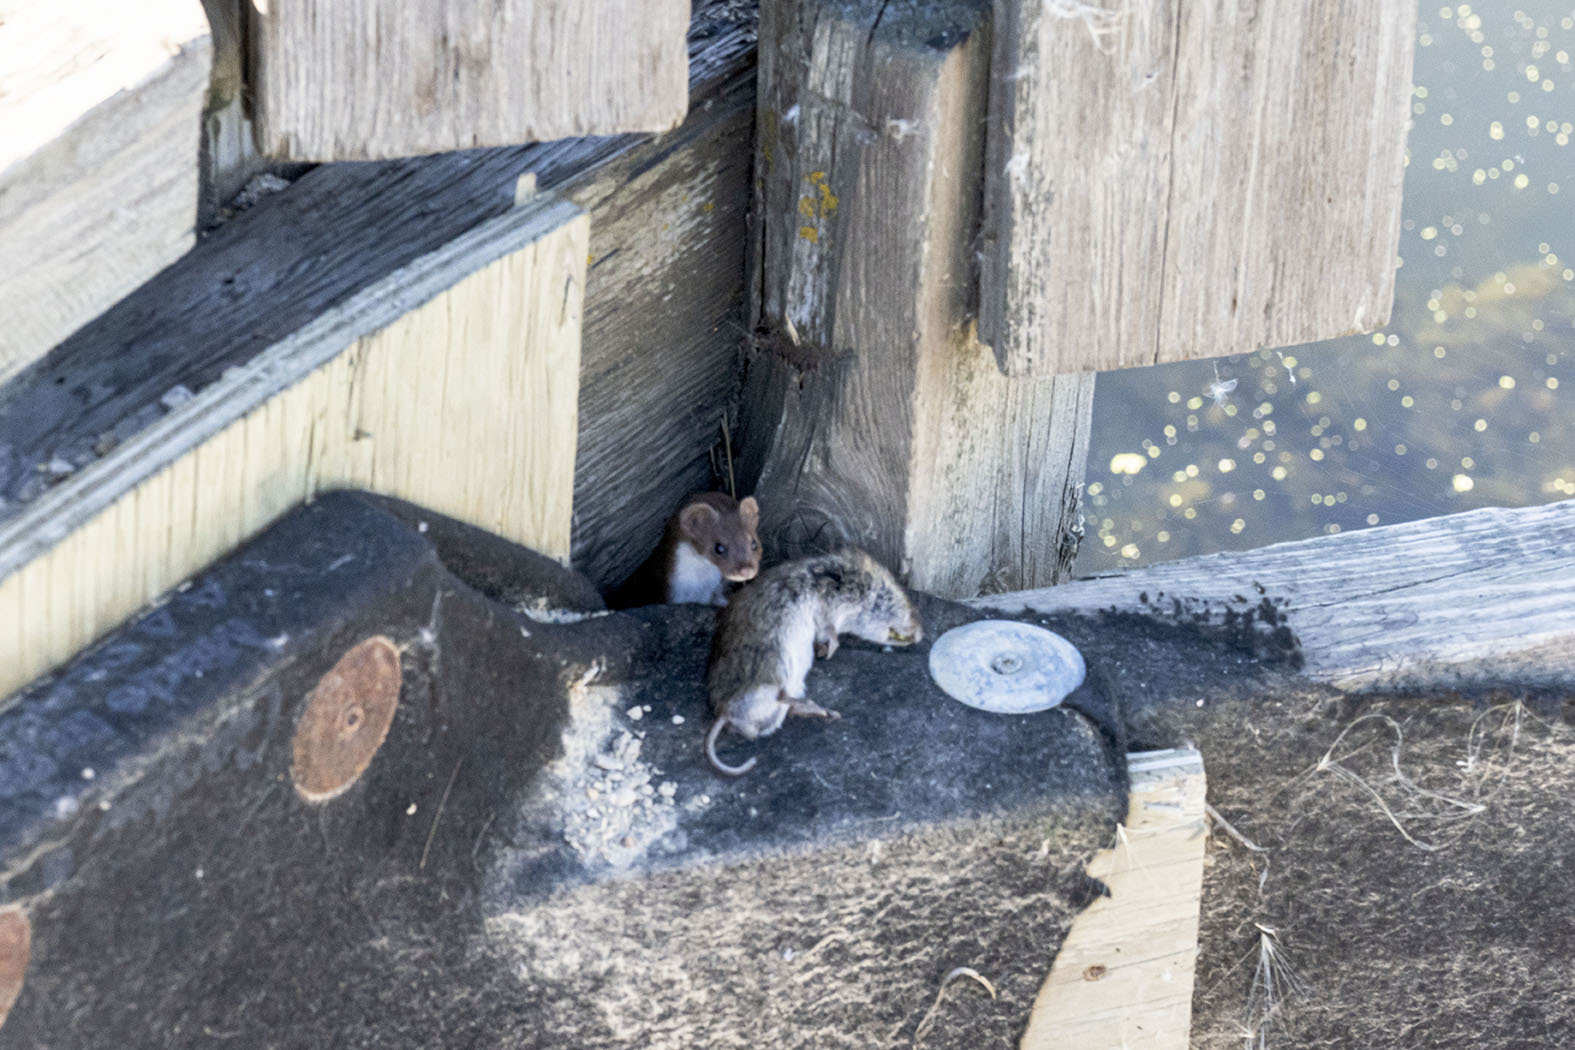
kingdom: Animalia
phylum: Chordata
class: Mammalia
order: Carnivora
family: Mustelidae
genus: Mustela
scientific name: Mustela nivalis
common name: Least weasel
